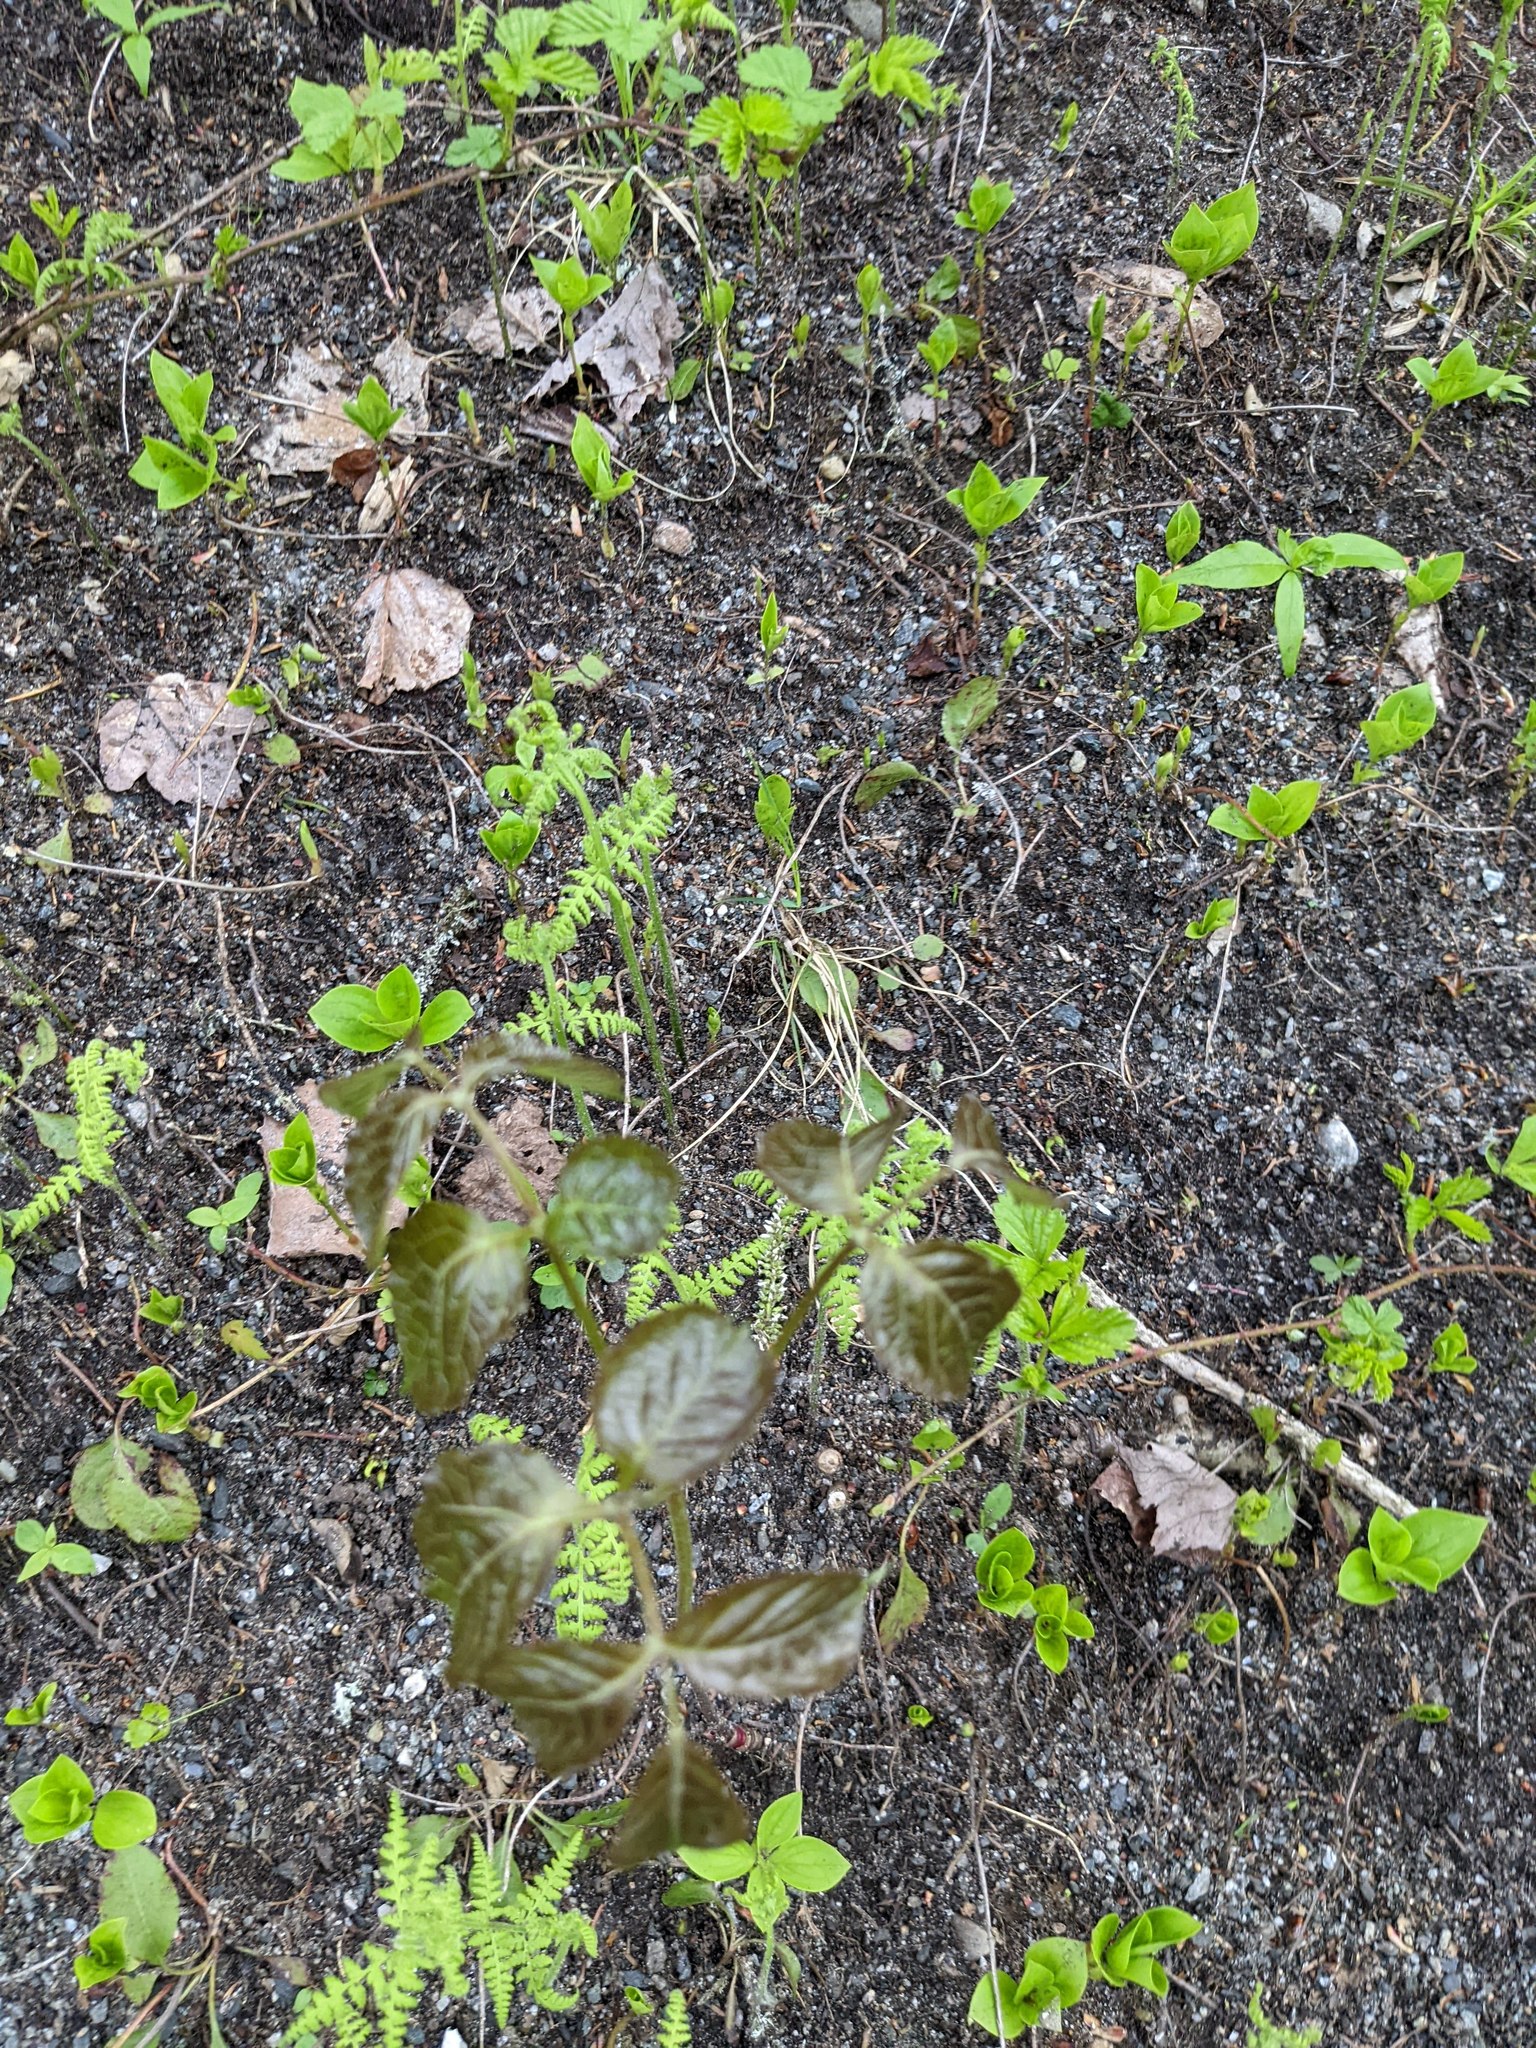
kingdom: Plantae
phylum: Tracheophyta
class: Magnoliopsida
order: Apiales
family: Araliaceae
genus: Aralia
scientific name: Aralia nudicaulis
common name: Wild sarsaparilla
